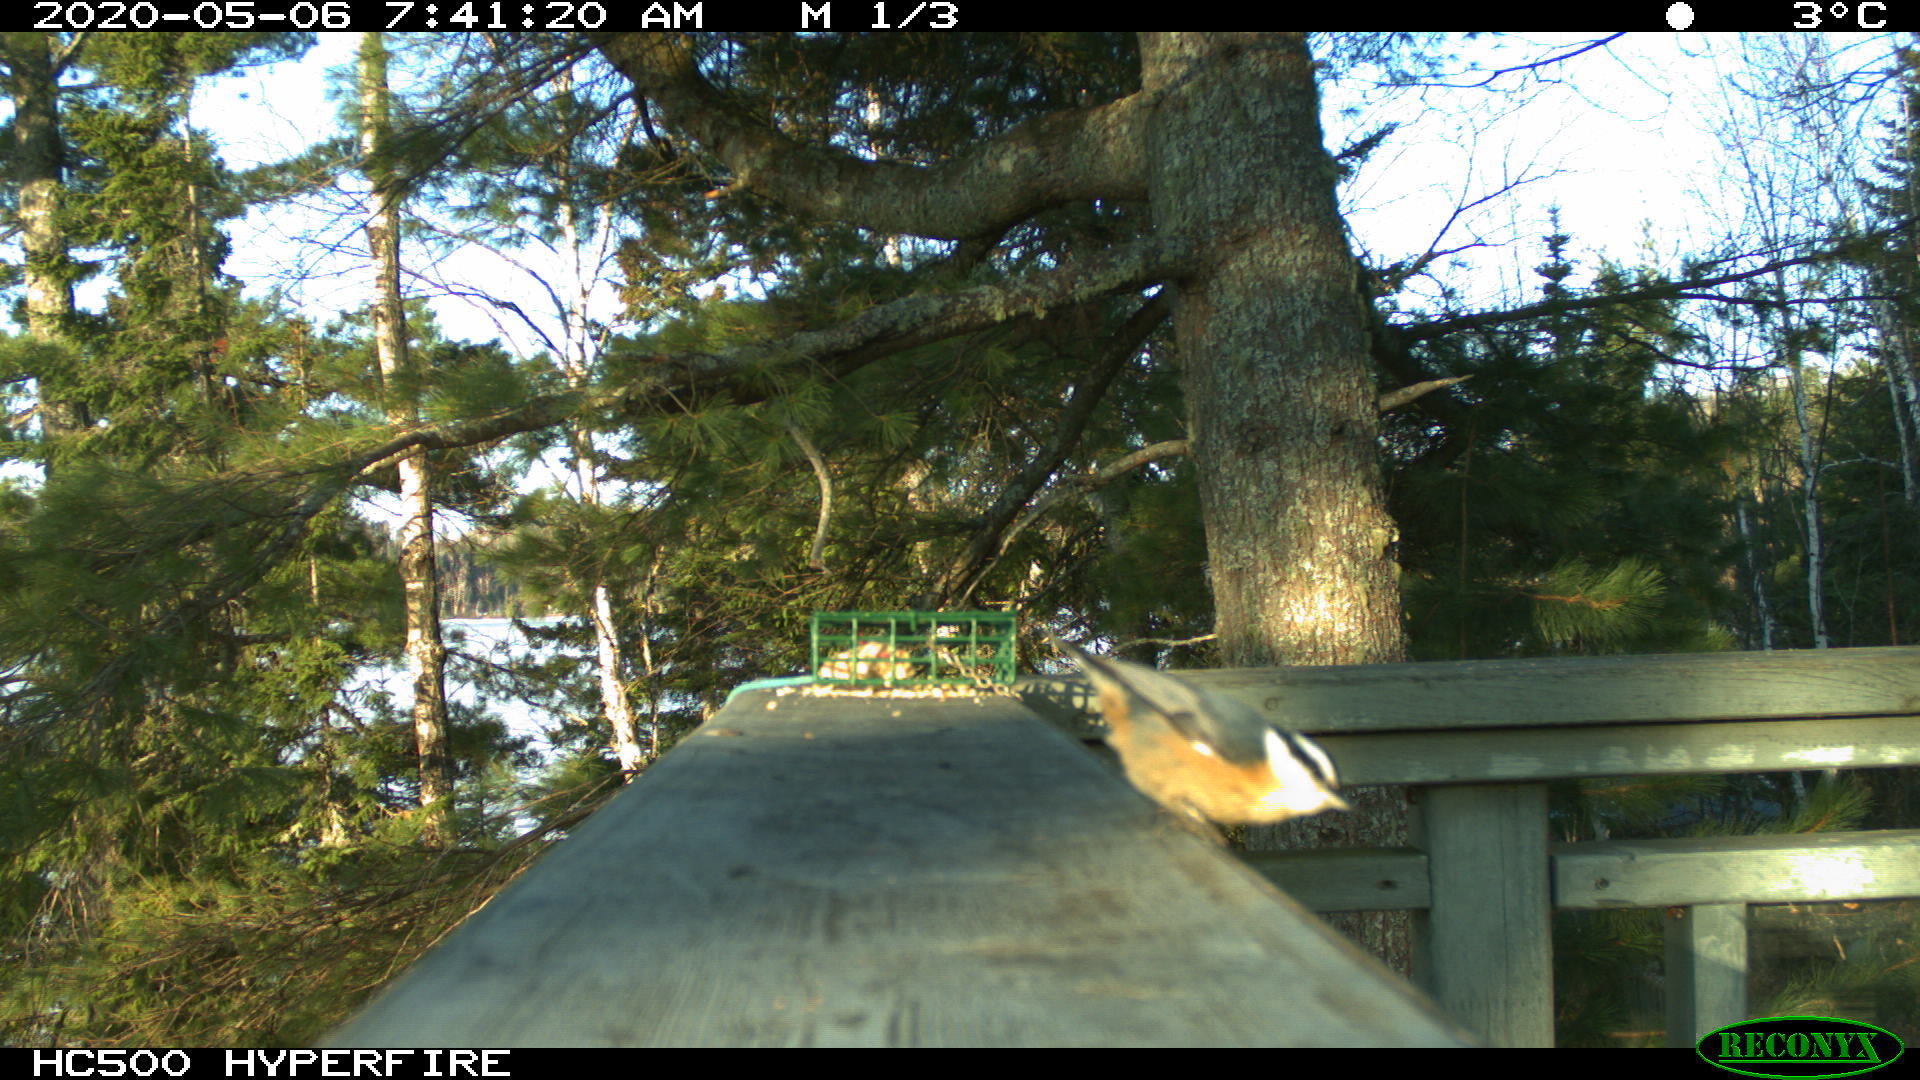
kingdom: Animalia
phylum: Chordata
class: Aves
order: Passeriformes
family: Sittidae
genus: Sitta
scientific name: Sitta canadensis
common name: Red-breasted nuthatch
